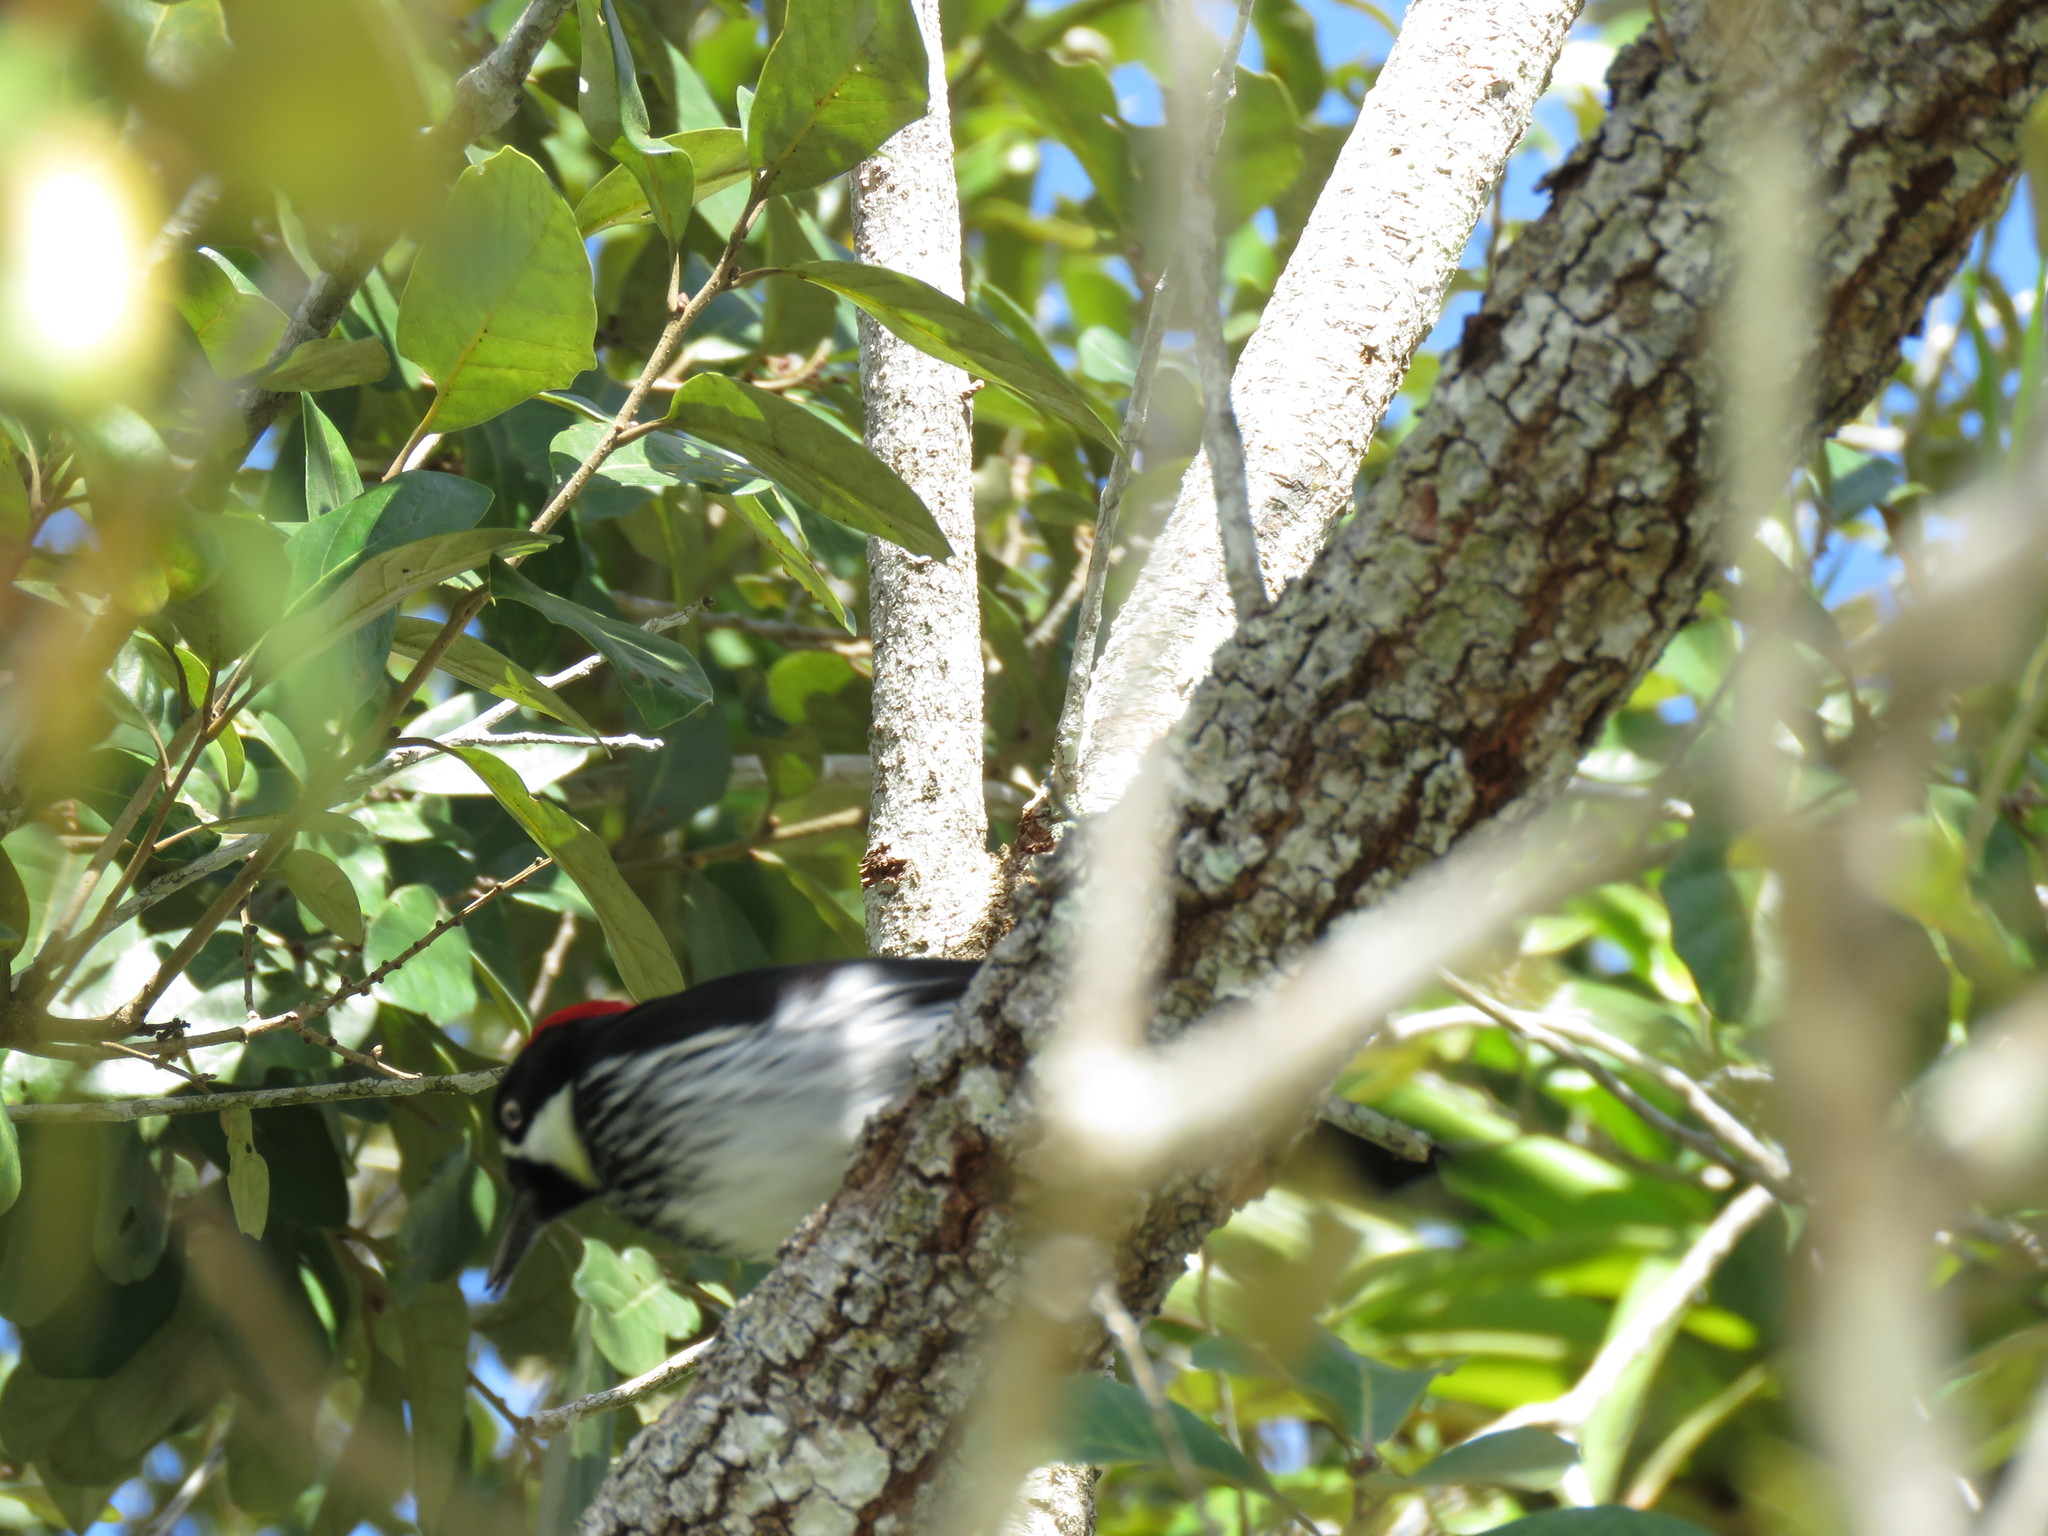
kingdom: Animalia
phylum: Chordata
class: Aves
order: Piciformes
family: Picidae
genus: Melanerpes
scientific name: Melanerpes formicivorus
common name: Acorn woodpecker
